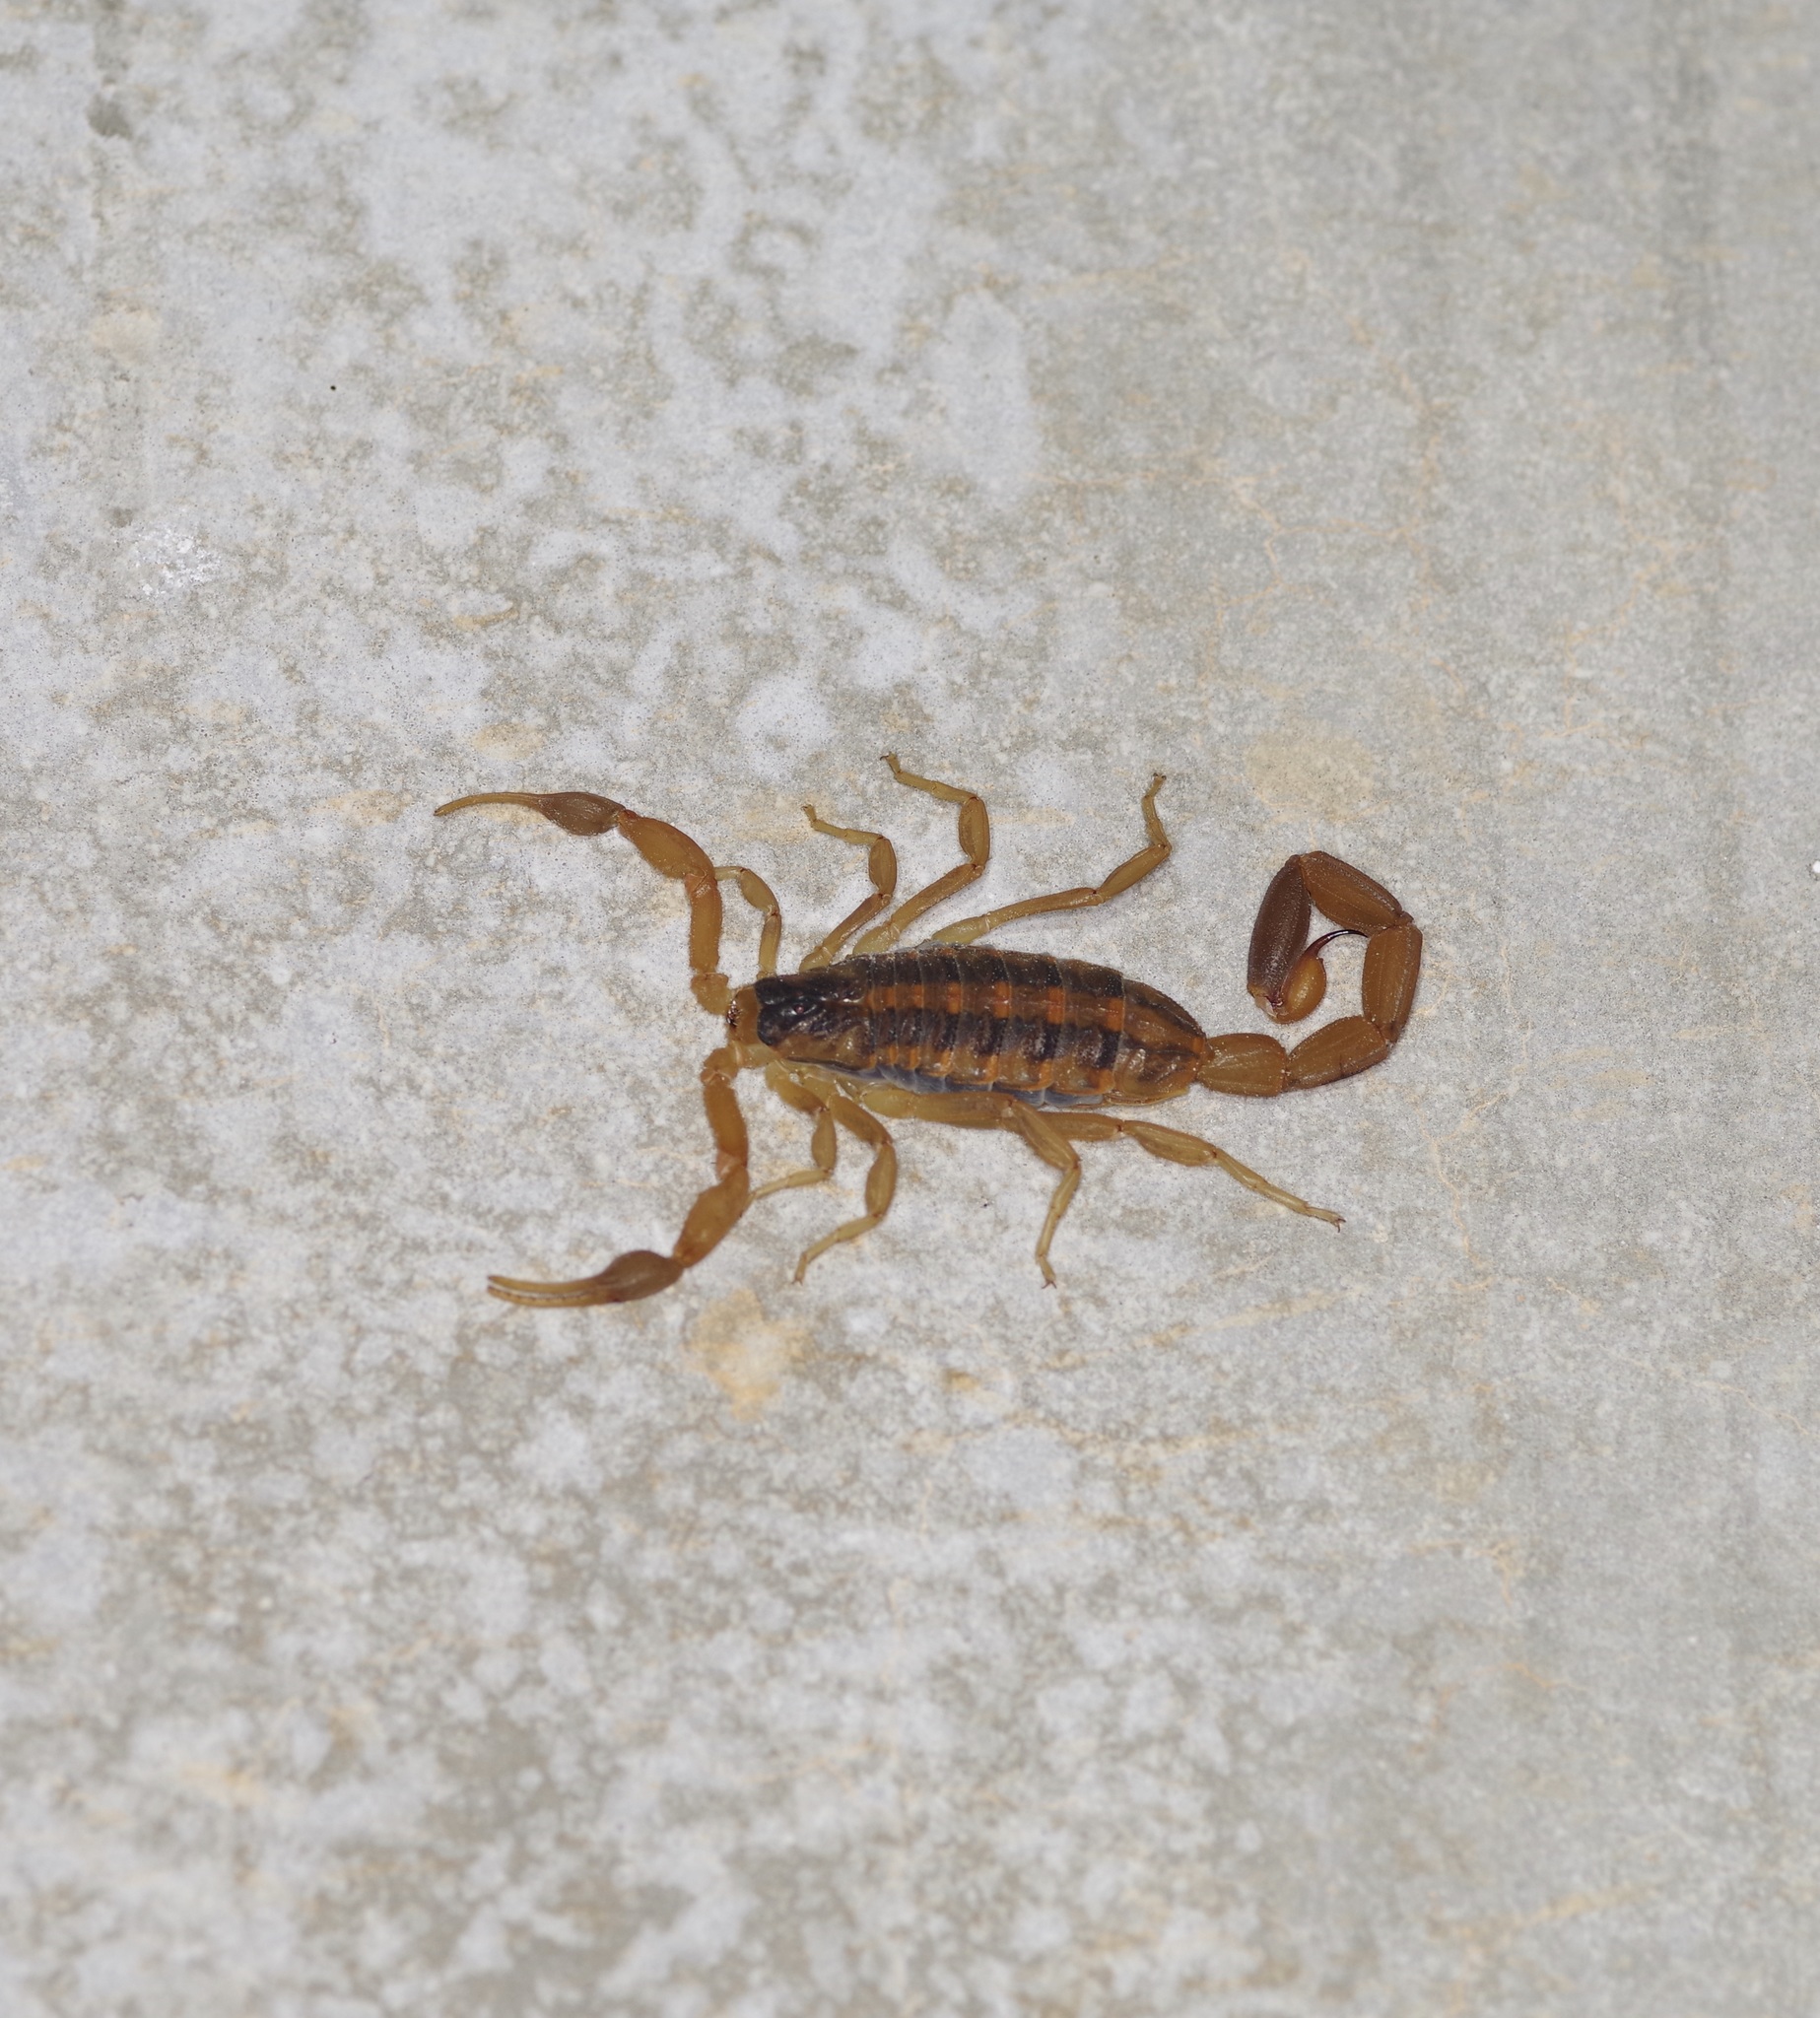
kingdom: Animalia
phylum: Arthropoda
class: Arachnida
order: Scorpiones
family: Buthidae
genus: Centruroides
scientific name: Centruroides vittatus
